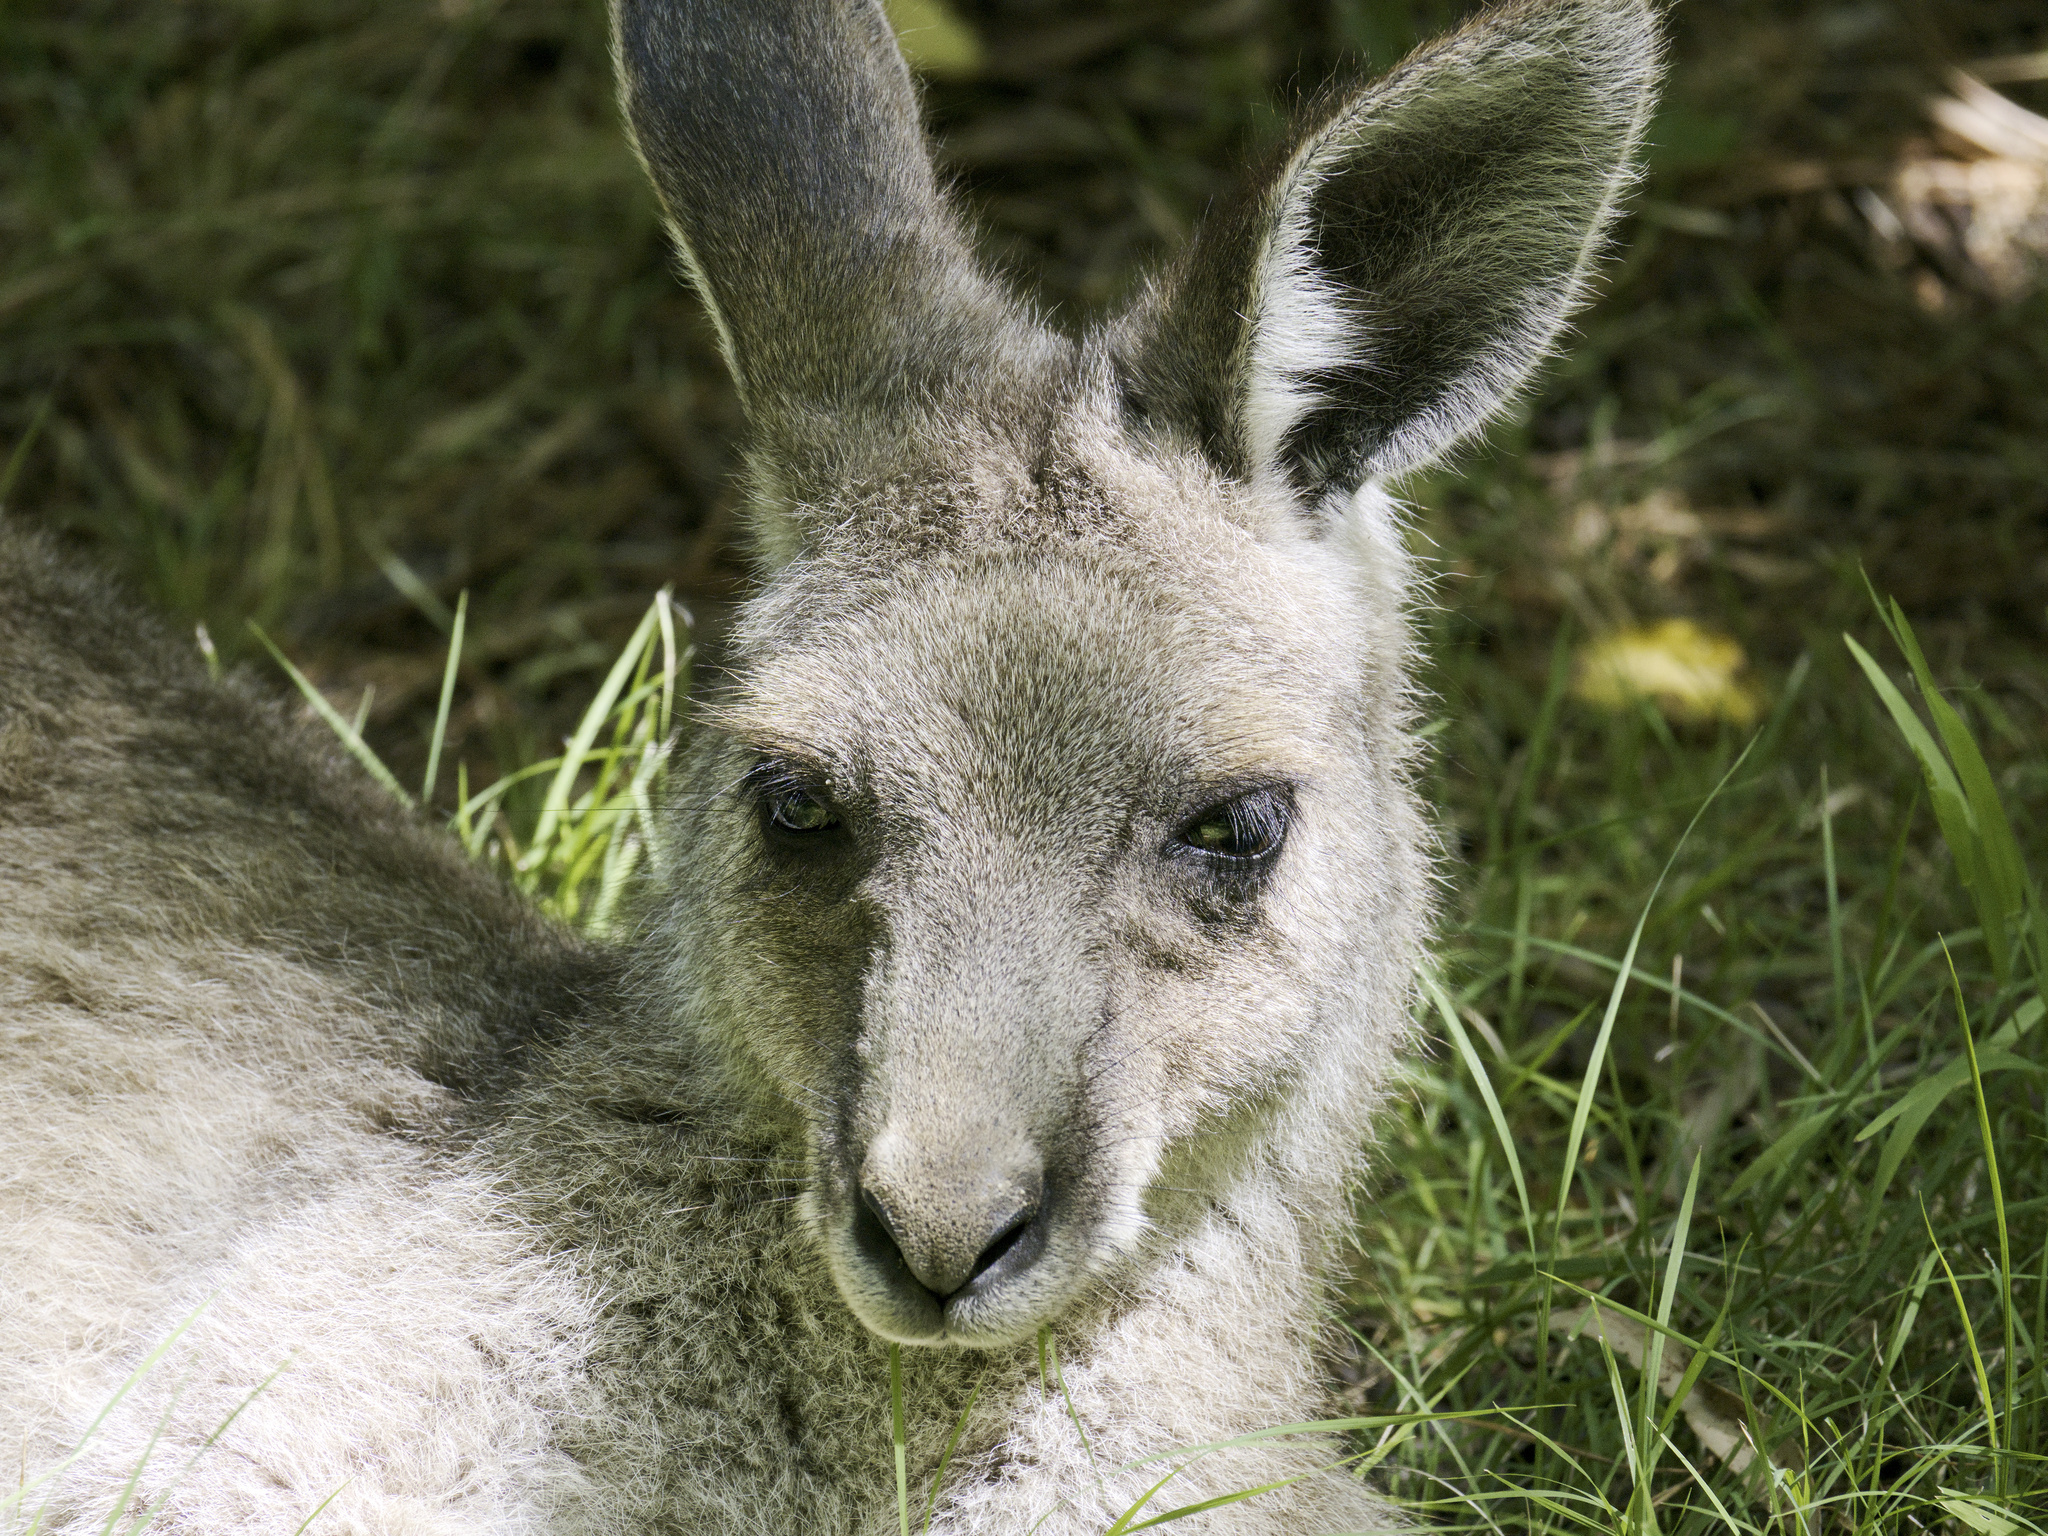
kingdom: Animalia
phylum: Chordata
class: Mammalia
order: Diprotodontia
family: Macropodidae
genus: Macropus
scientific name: Macropus giganteus
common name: Eastern grey kangaroo
